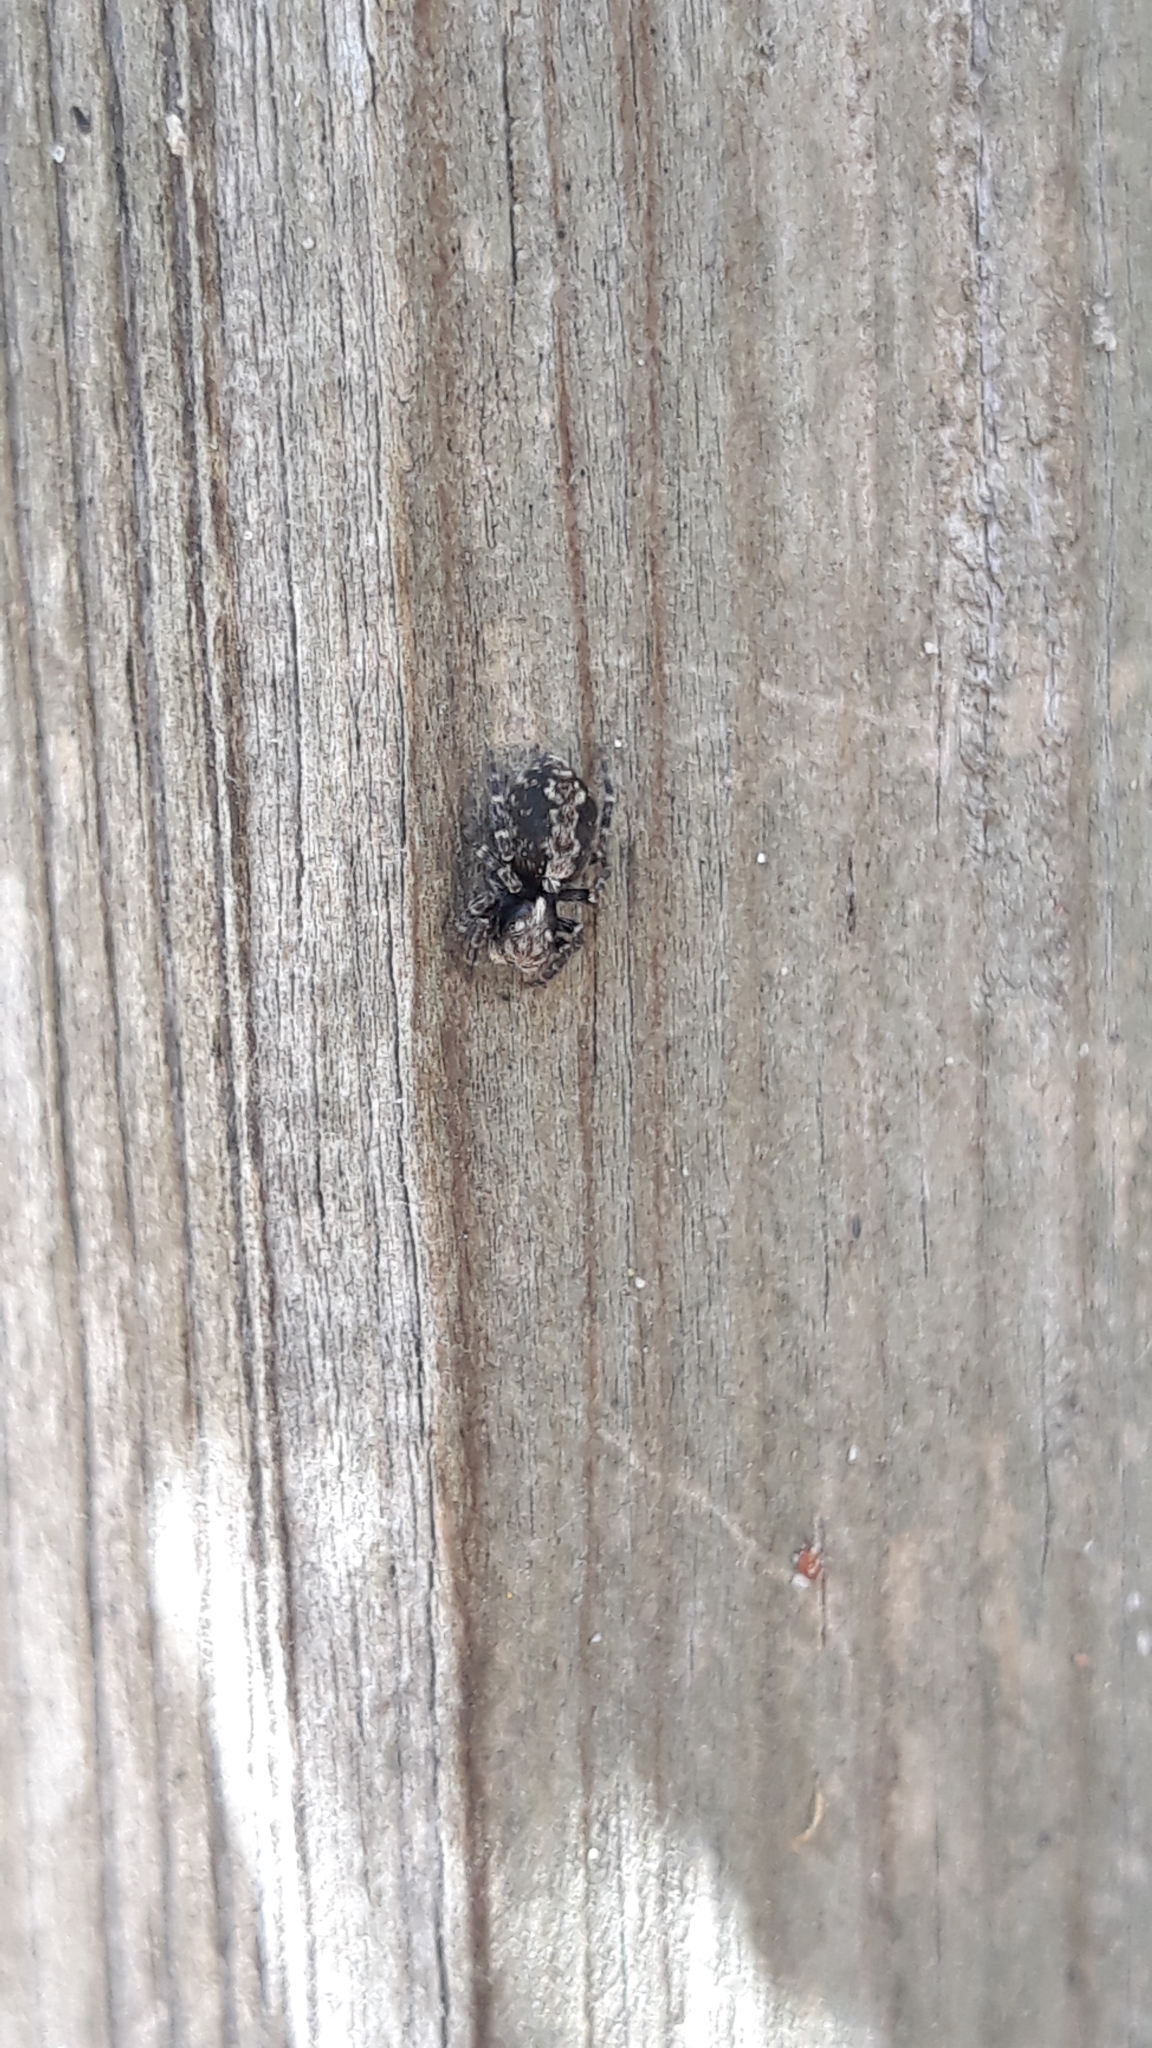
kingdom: Animalia
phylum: Arthropoda
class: Arachnida
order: Araneae
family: Salticidae
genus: Pseudeuophrys
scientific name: Pseudeuophrys lanigera
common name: Jumping spider
